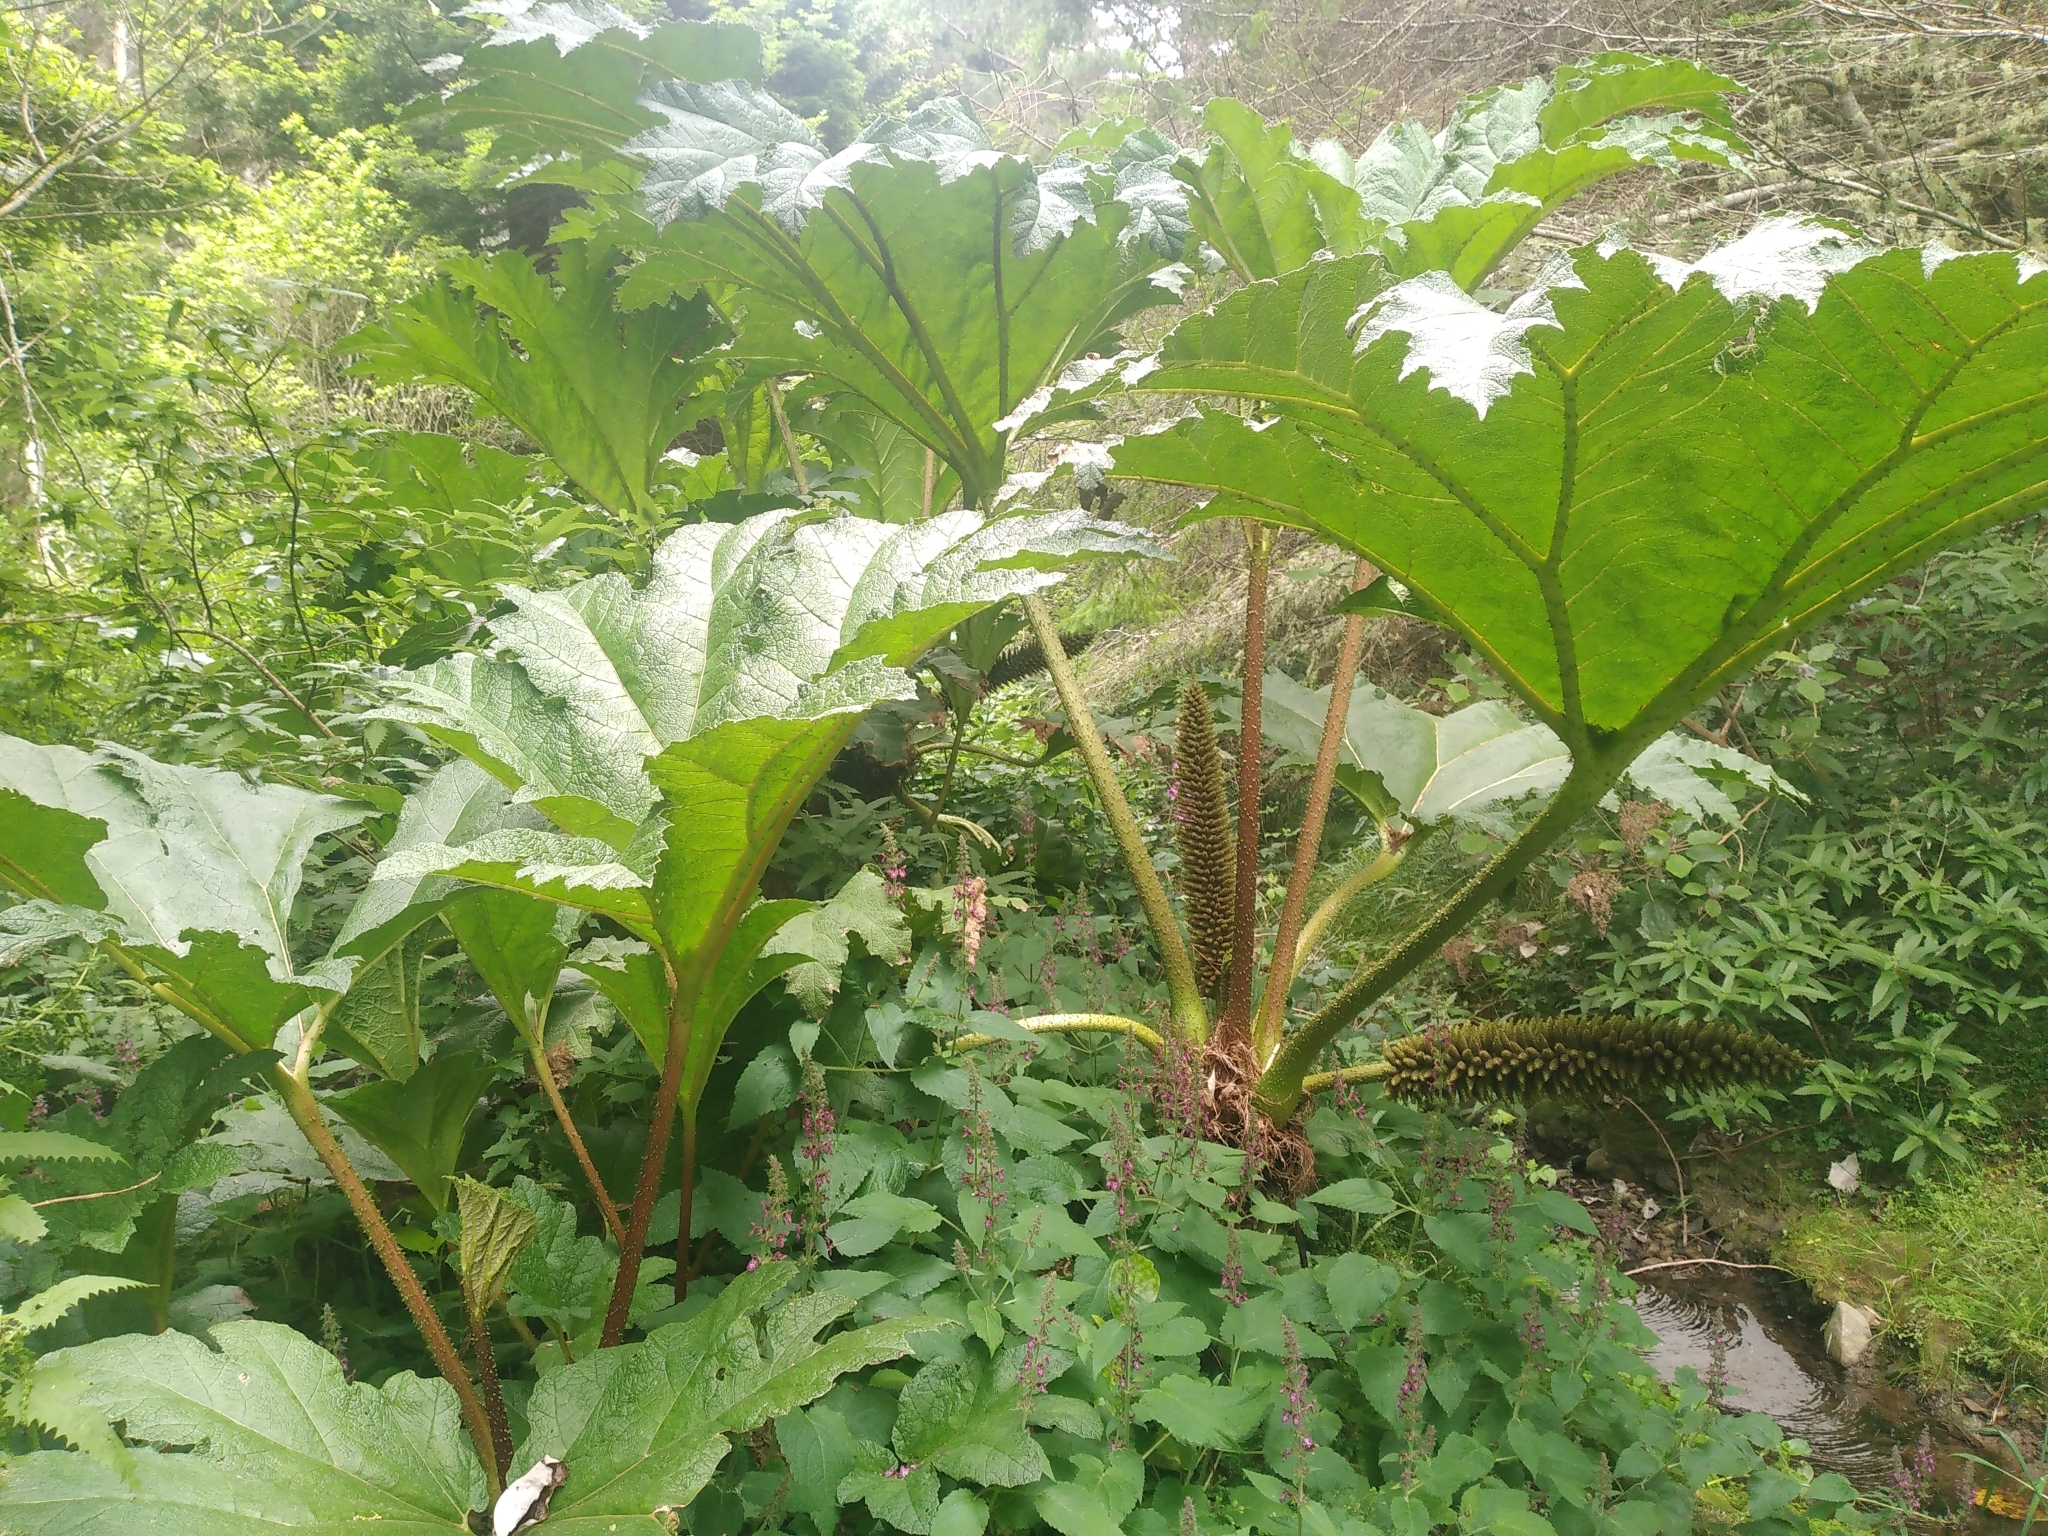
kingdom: Plantae
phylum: Tracheophyta
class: Magnoliopsida
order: Gunnerales
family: Gunneraceae
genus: Gunnera
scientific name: Gunnera tinctoria
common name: Giant-rhubarb
